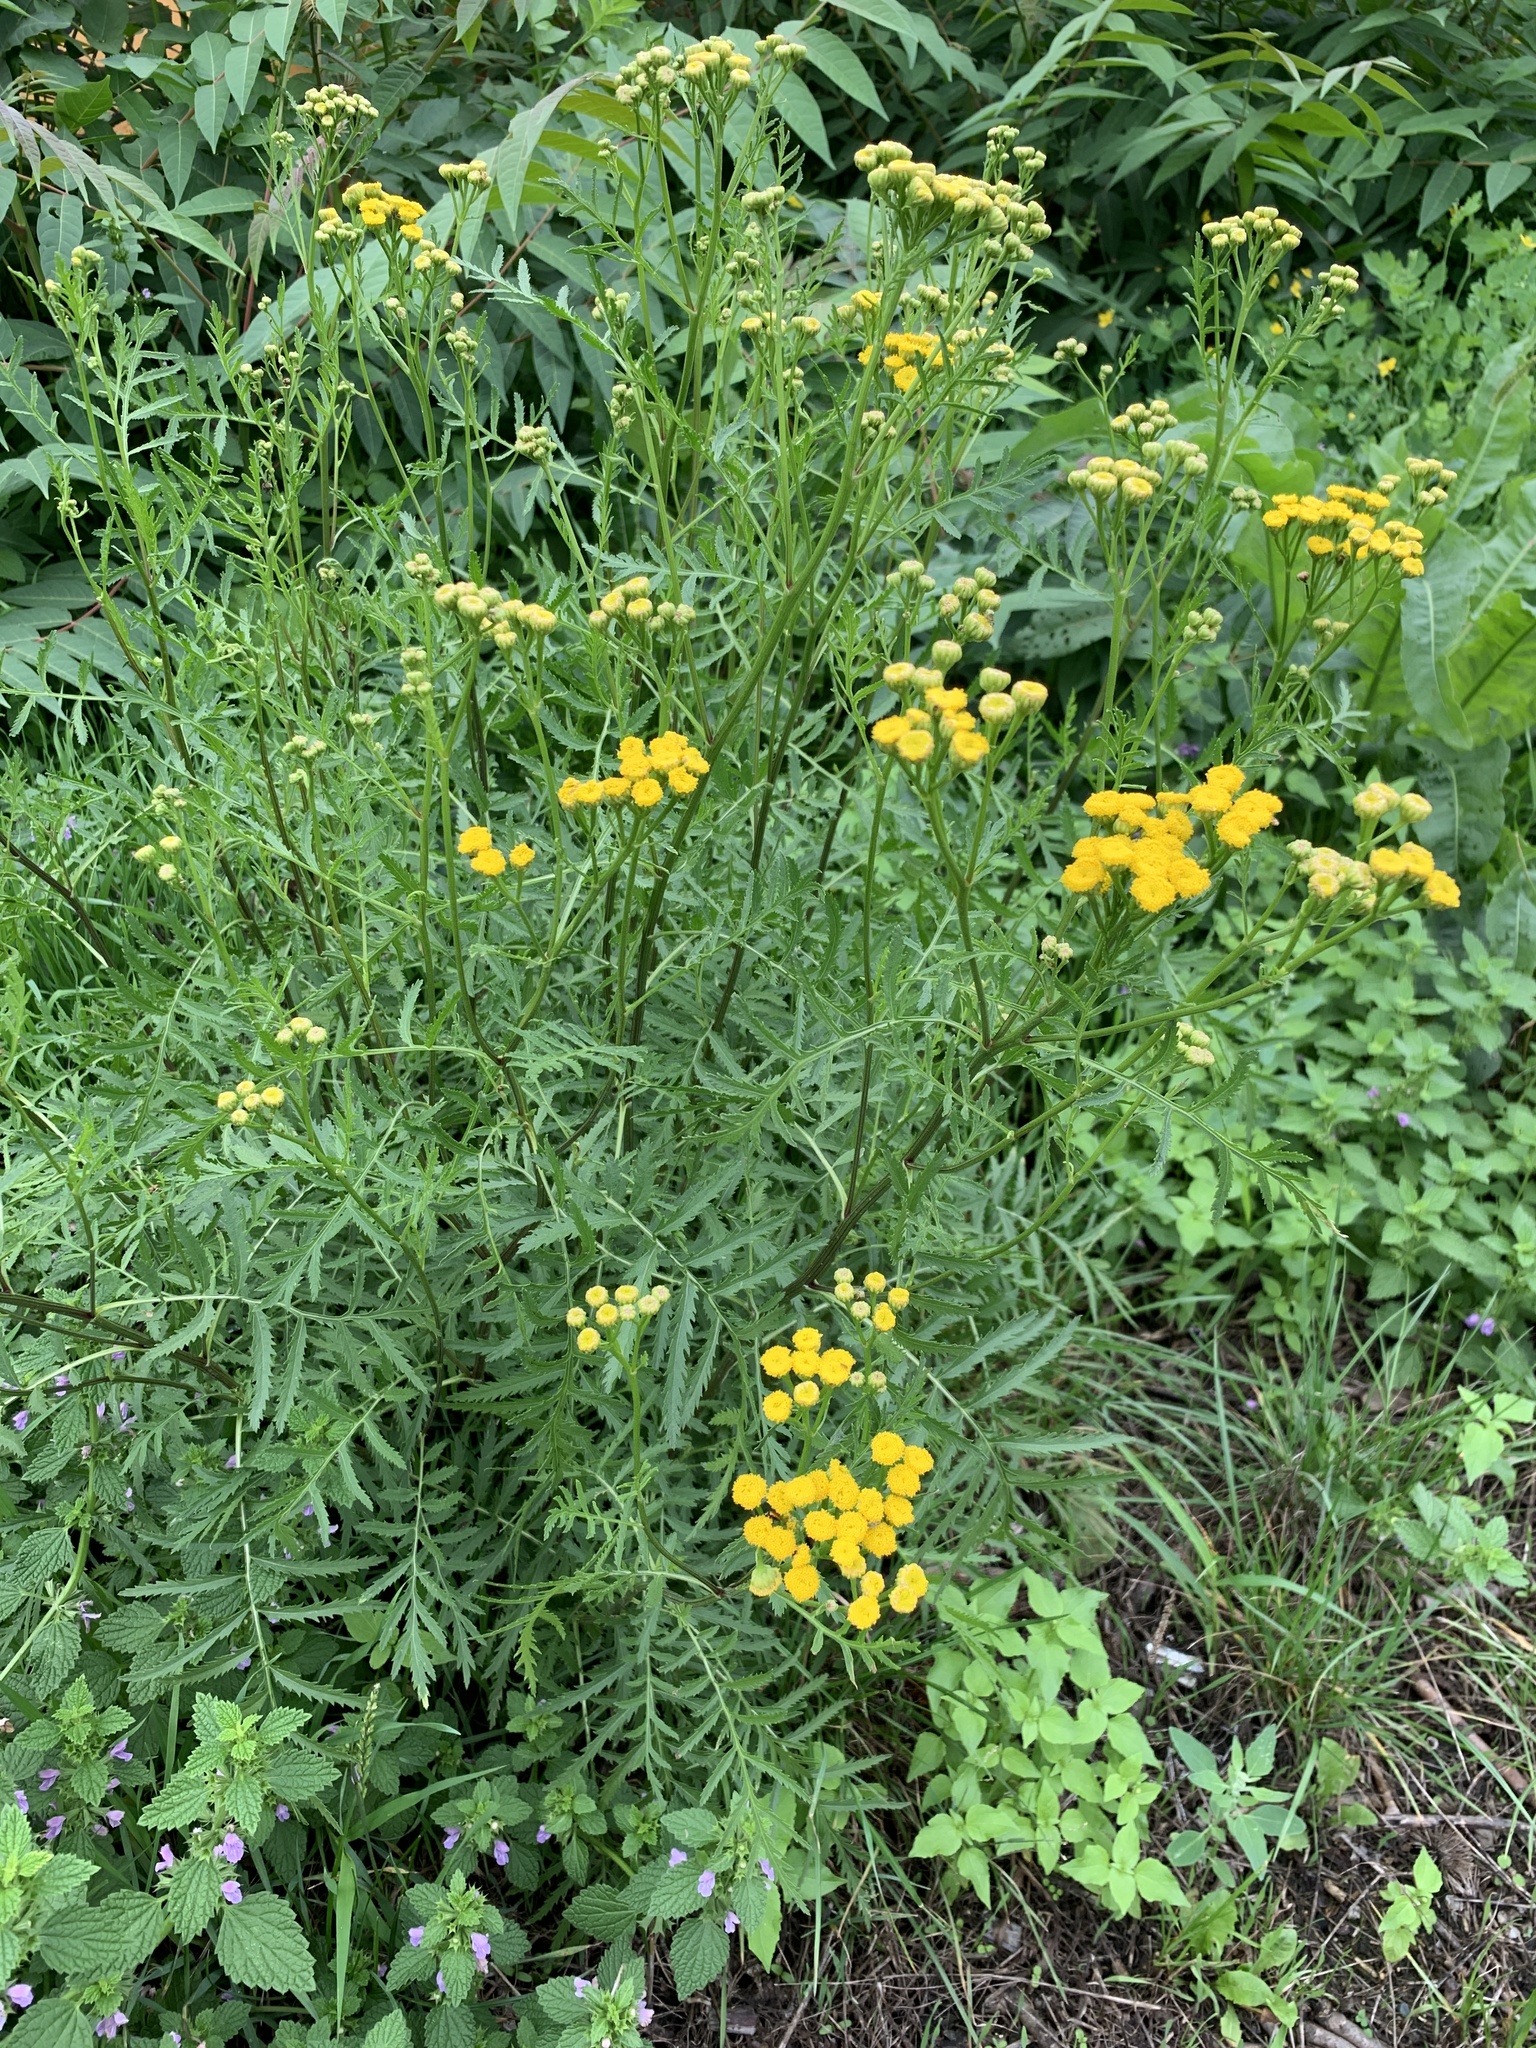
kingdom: Plantae
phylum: Tracheophyta
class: Magnoliopsida
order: Asterales
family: Asteraceae
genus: Tanacetum
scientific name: Tanacetum vulgare
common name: Common tansy
